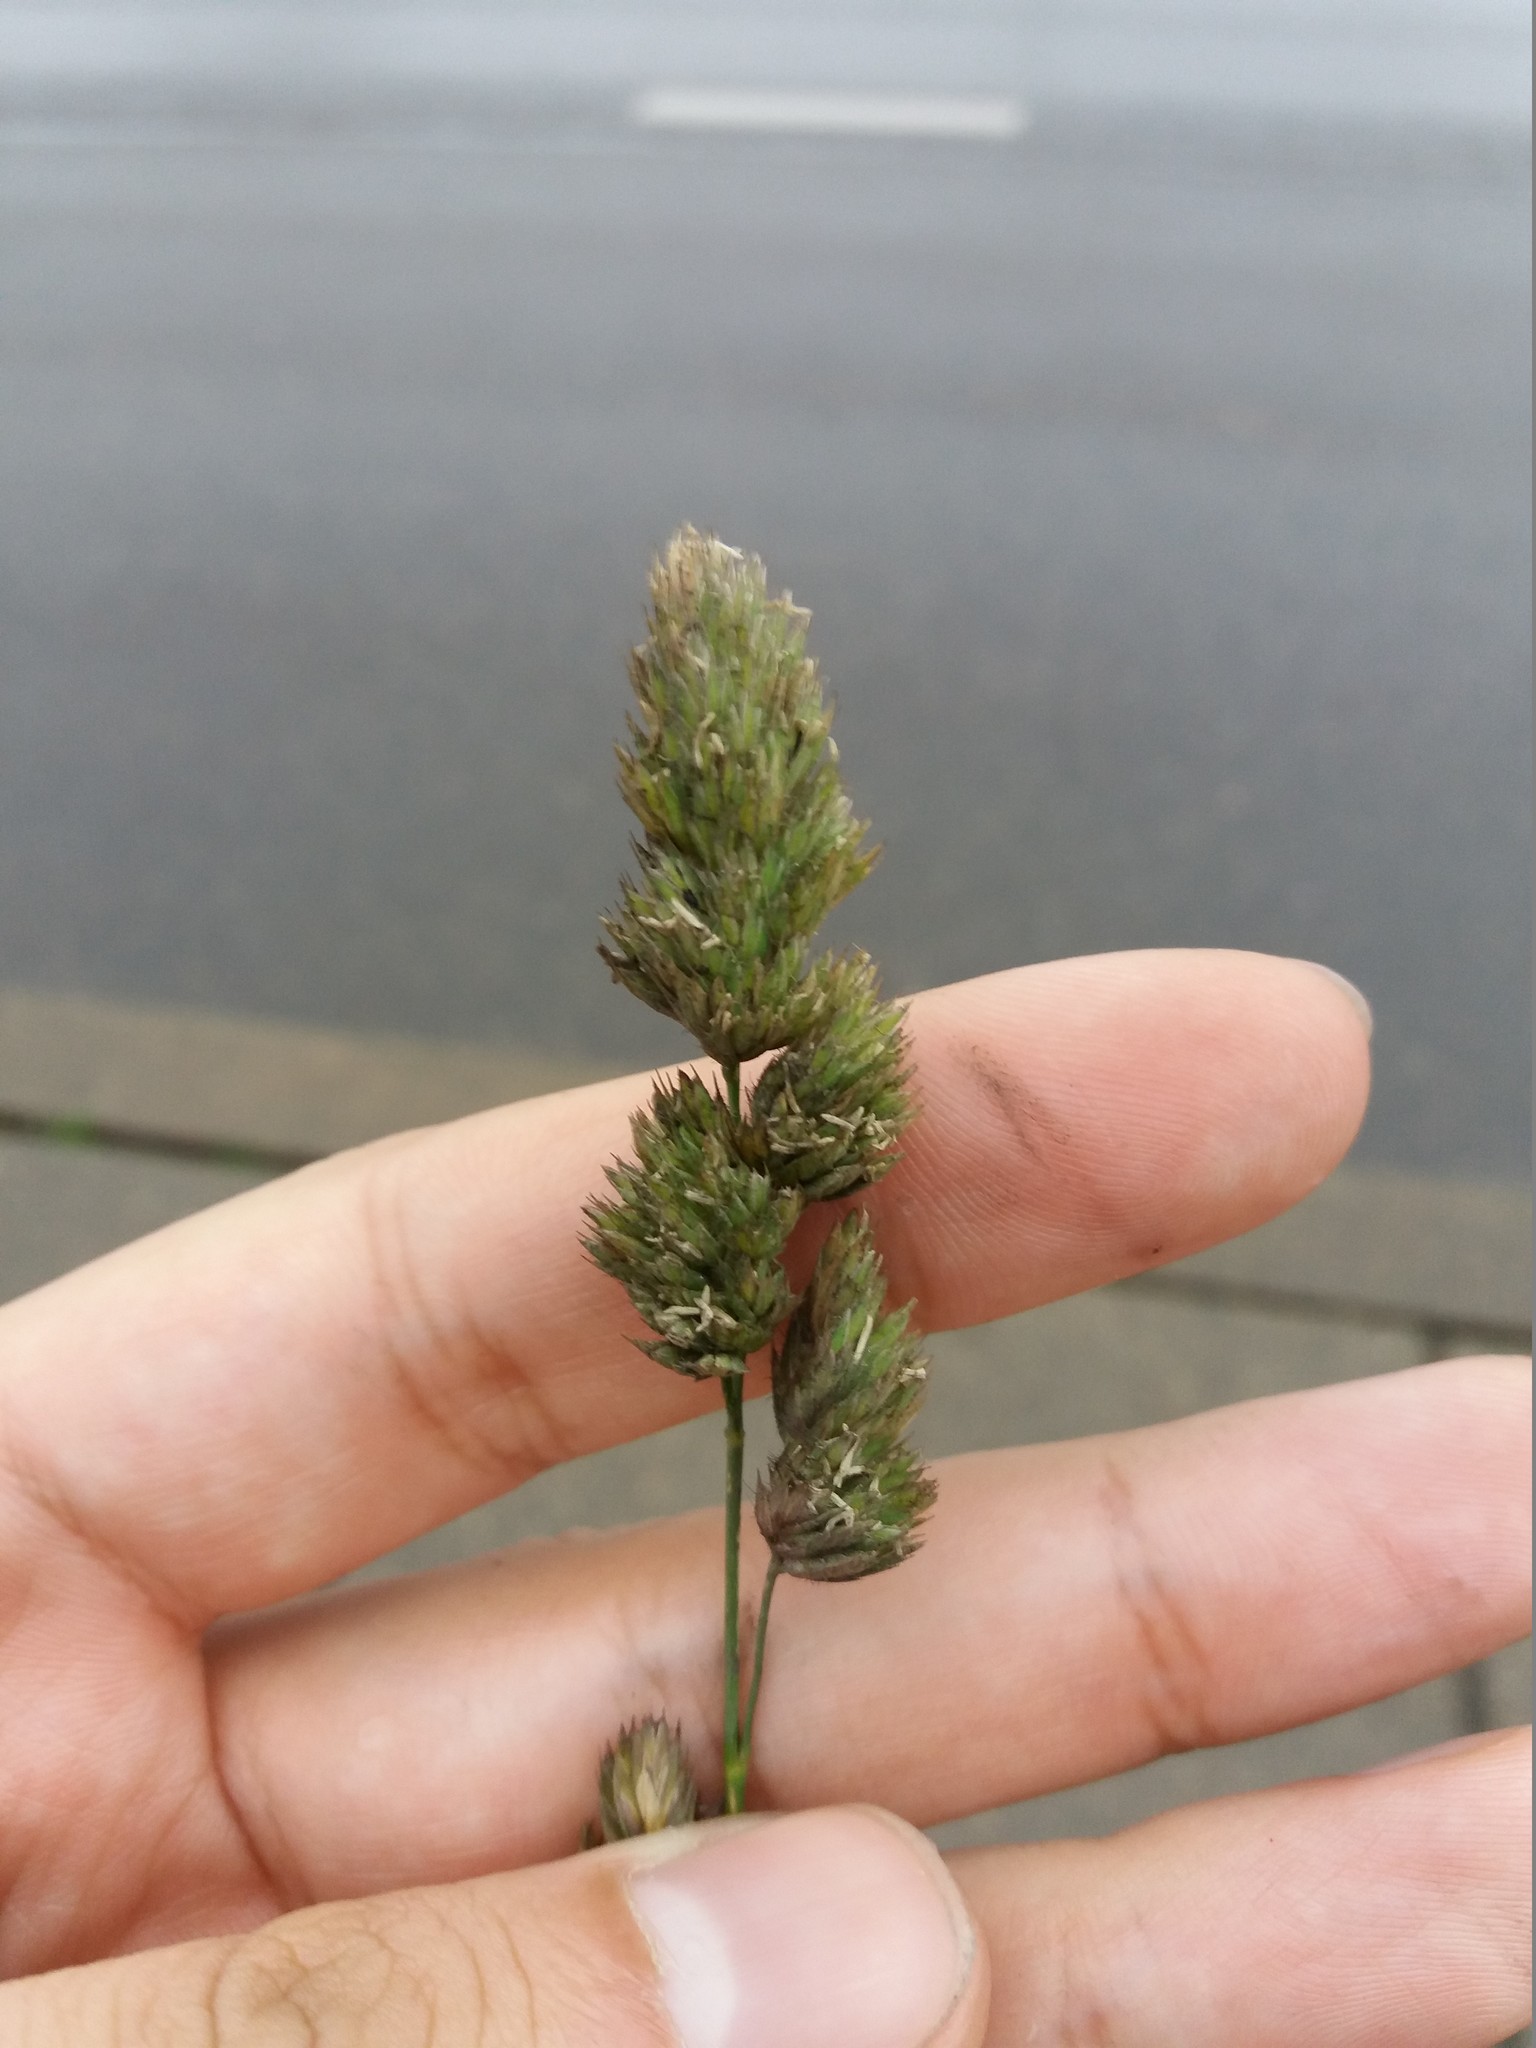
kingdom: Plantae
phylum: Tracheophyta
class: Liliopsida
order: Poales
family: Poaceae
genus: Dactylis
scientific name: Dactylis glomerata
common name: Orchardgrass
